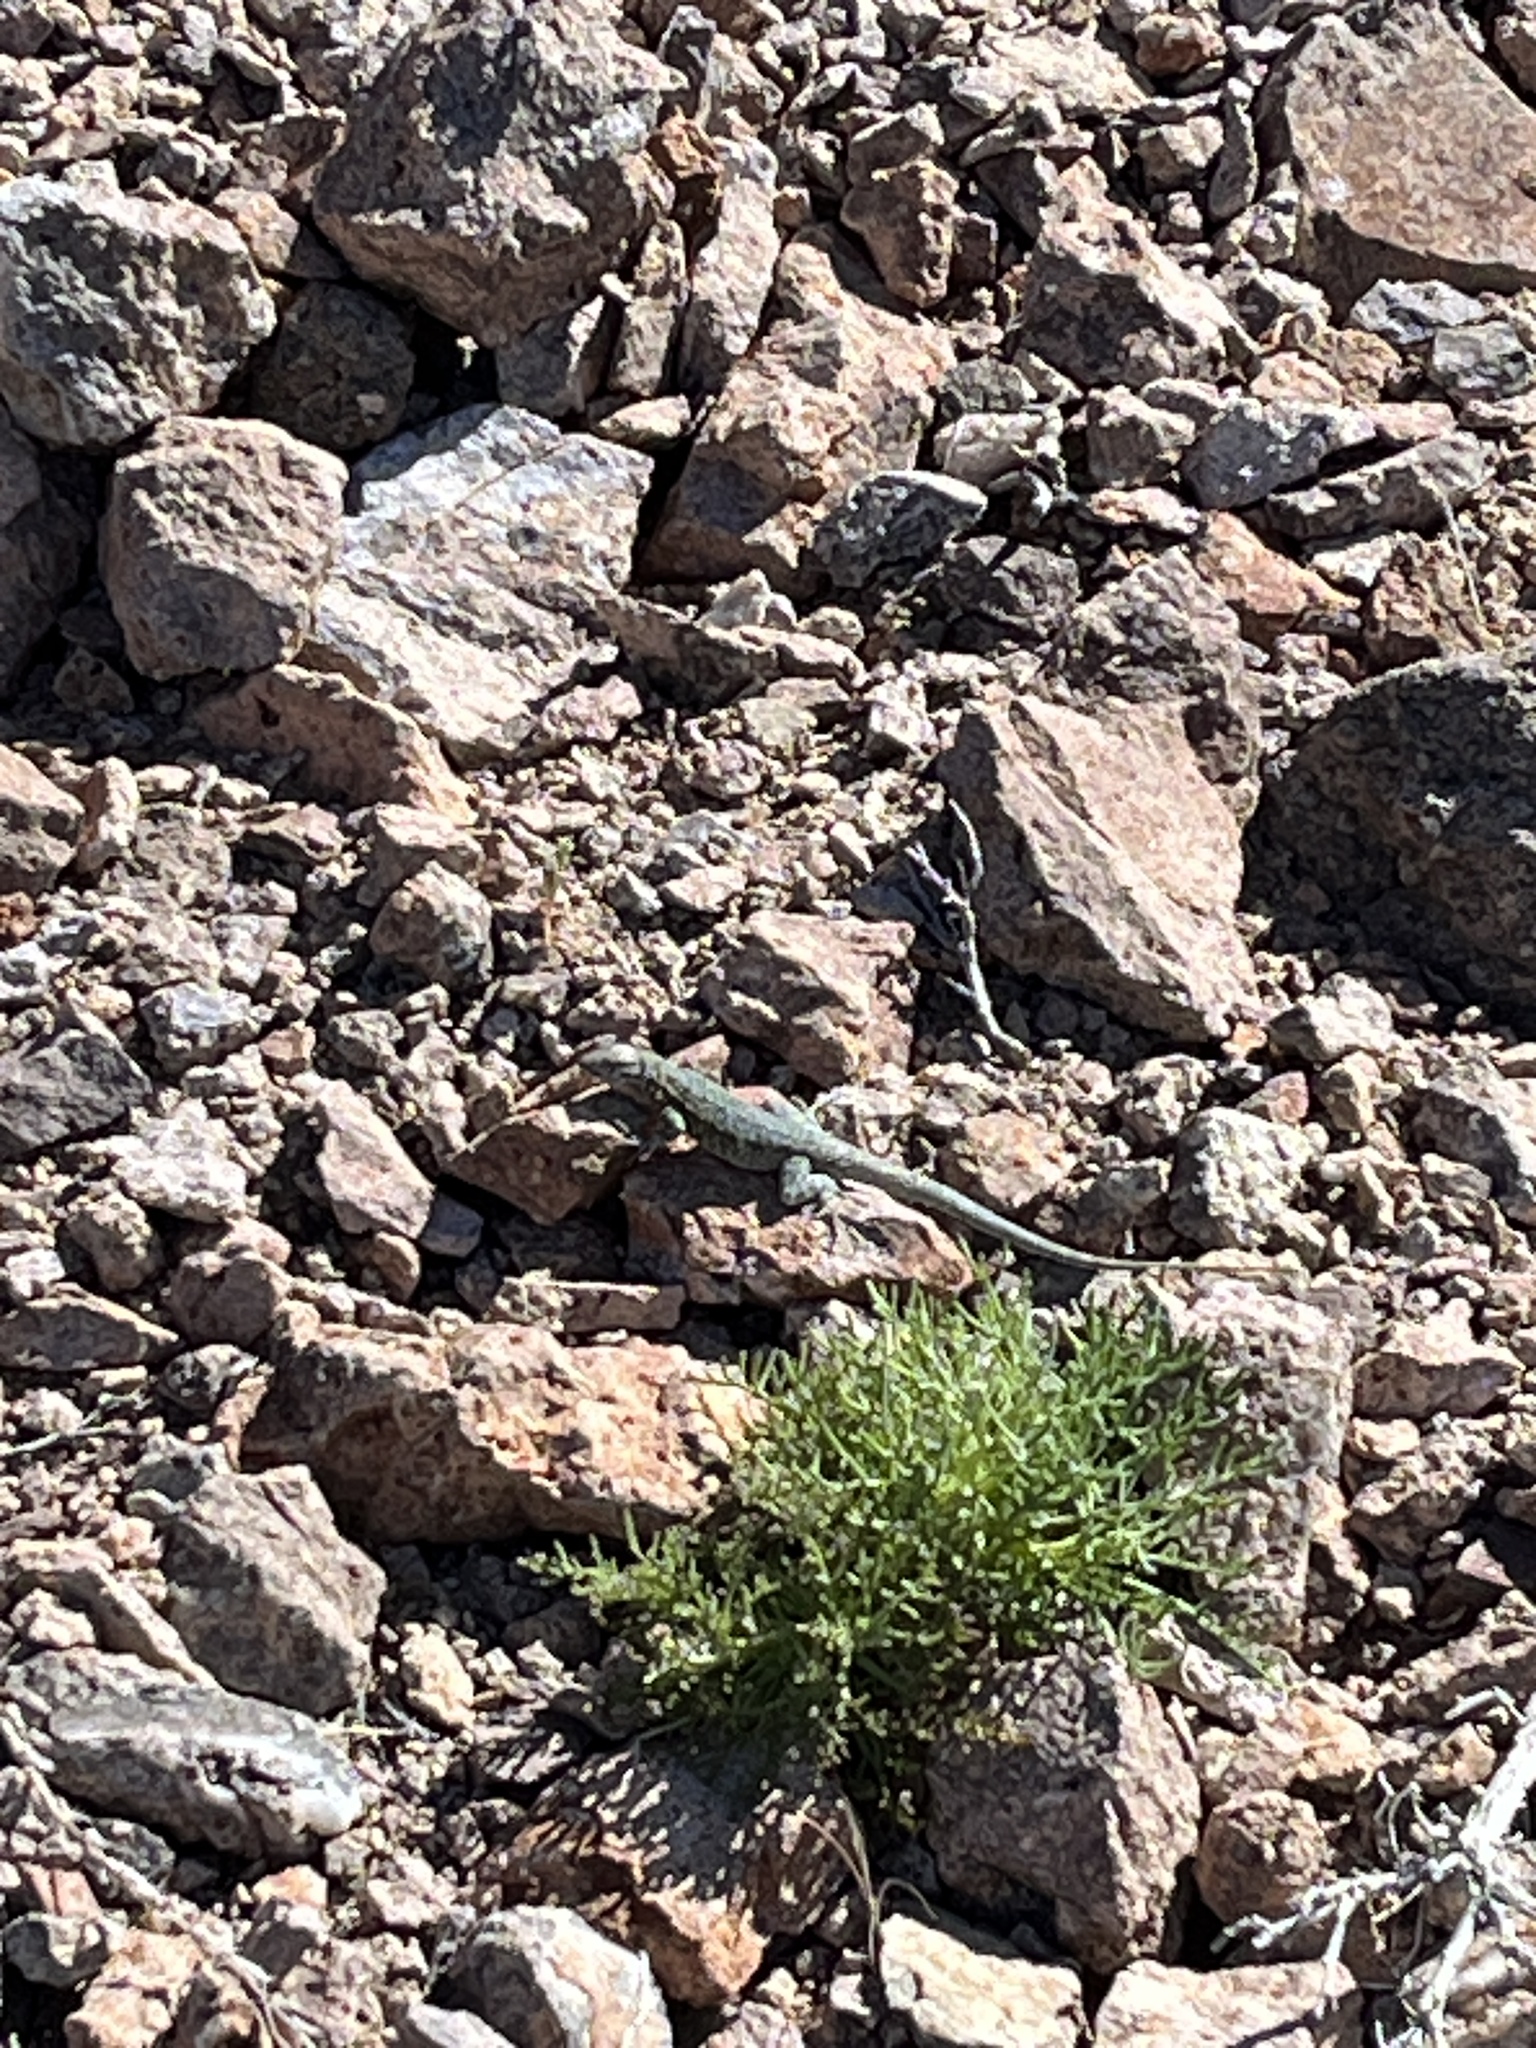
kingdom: Animalia
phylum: Chordata
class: Squamata
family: Phrynosomatidae
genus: Uta
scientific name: Uta stansburiana
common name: Side-blotched lizard
